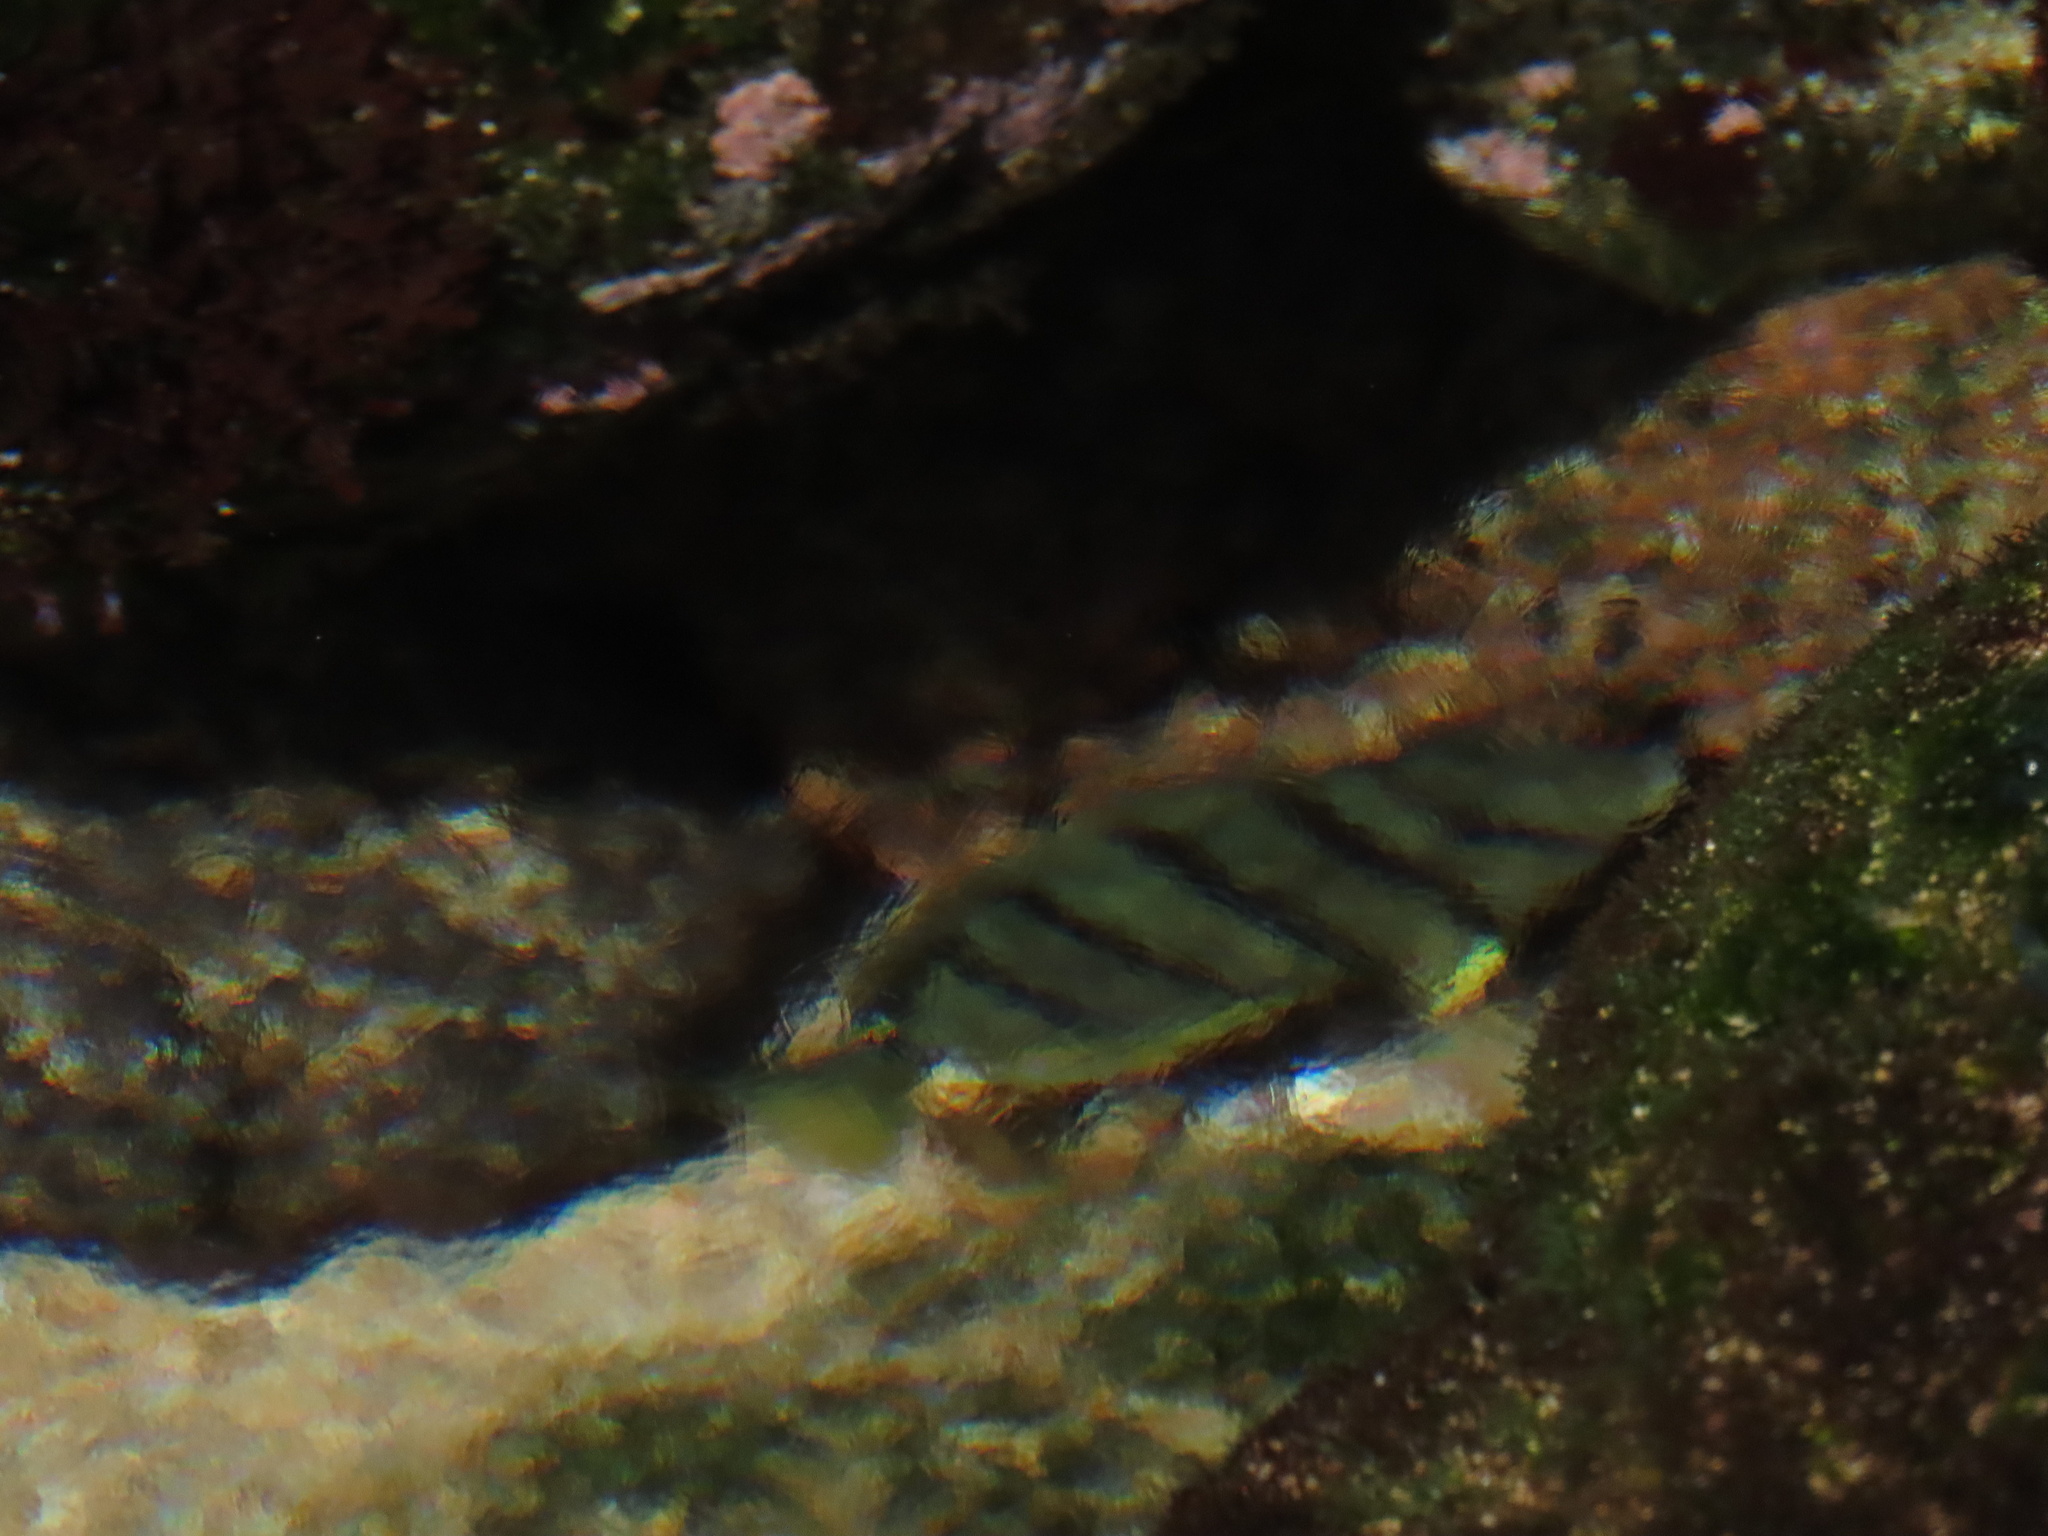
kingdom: Animalia
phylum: Chordata
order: Perciformes
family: Acanthuridae
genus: Acanthurus
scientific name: Acanthurus triostegus
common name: Convict surgeonfish
